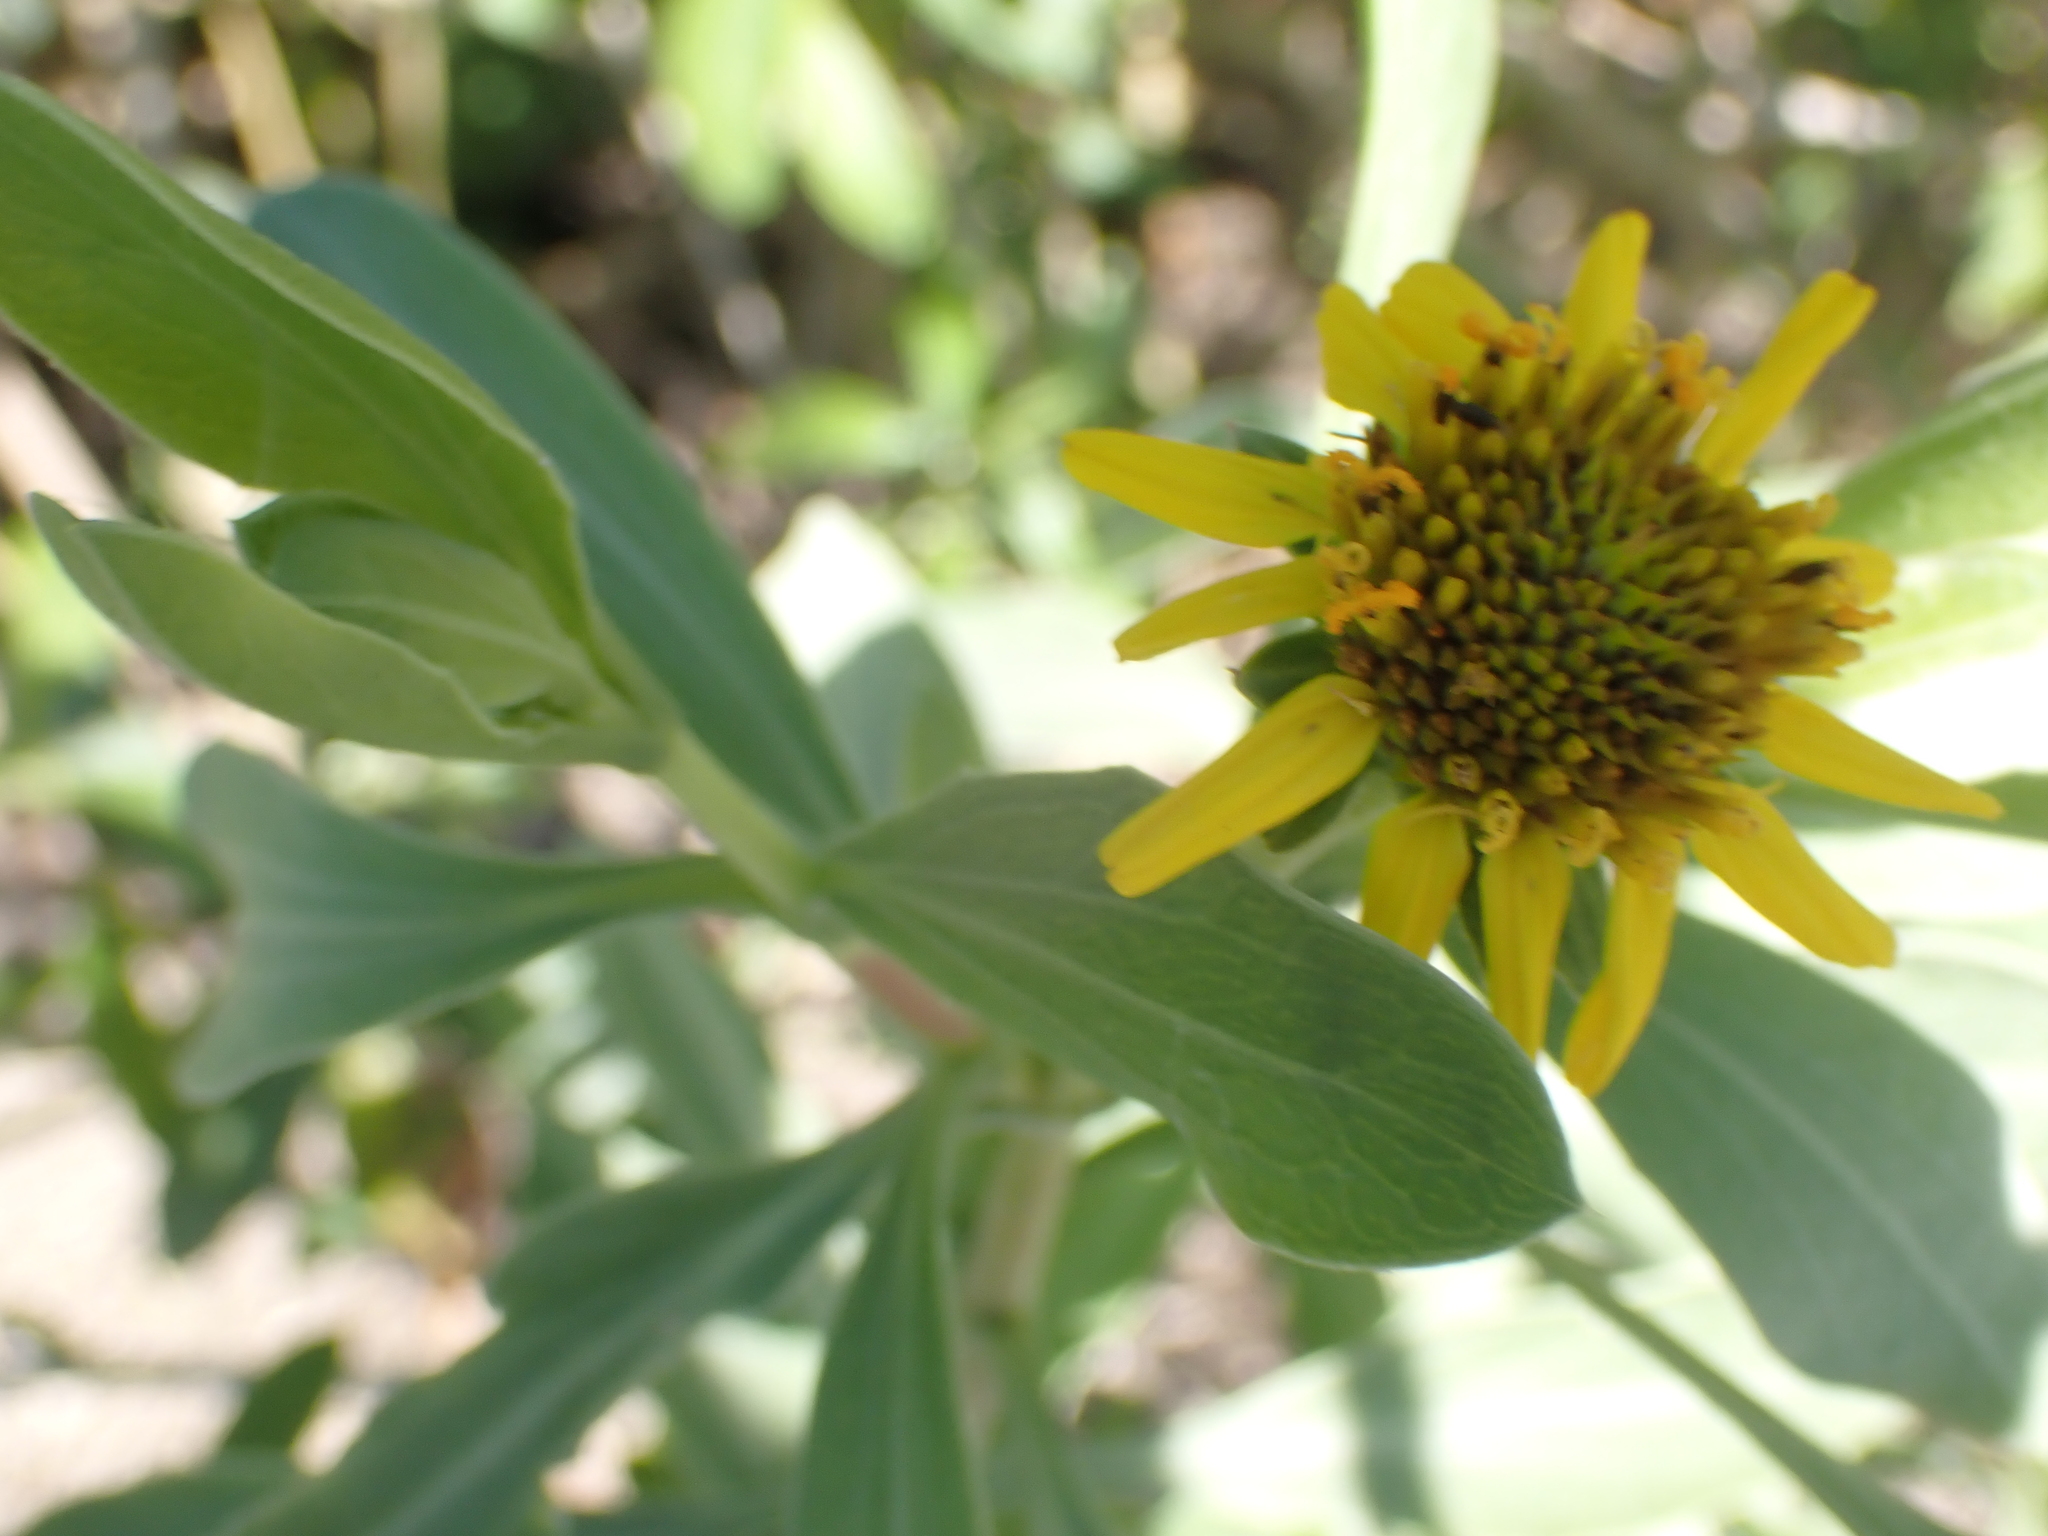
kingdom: Plantae
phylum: Tracheophyta
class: Magnoliopsida
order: Asterales
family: Asteraceae
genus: Borrichia
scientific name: Borrichia frutescens
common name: Sea oxeye
